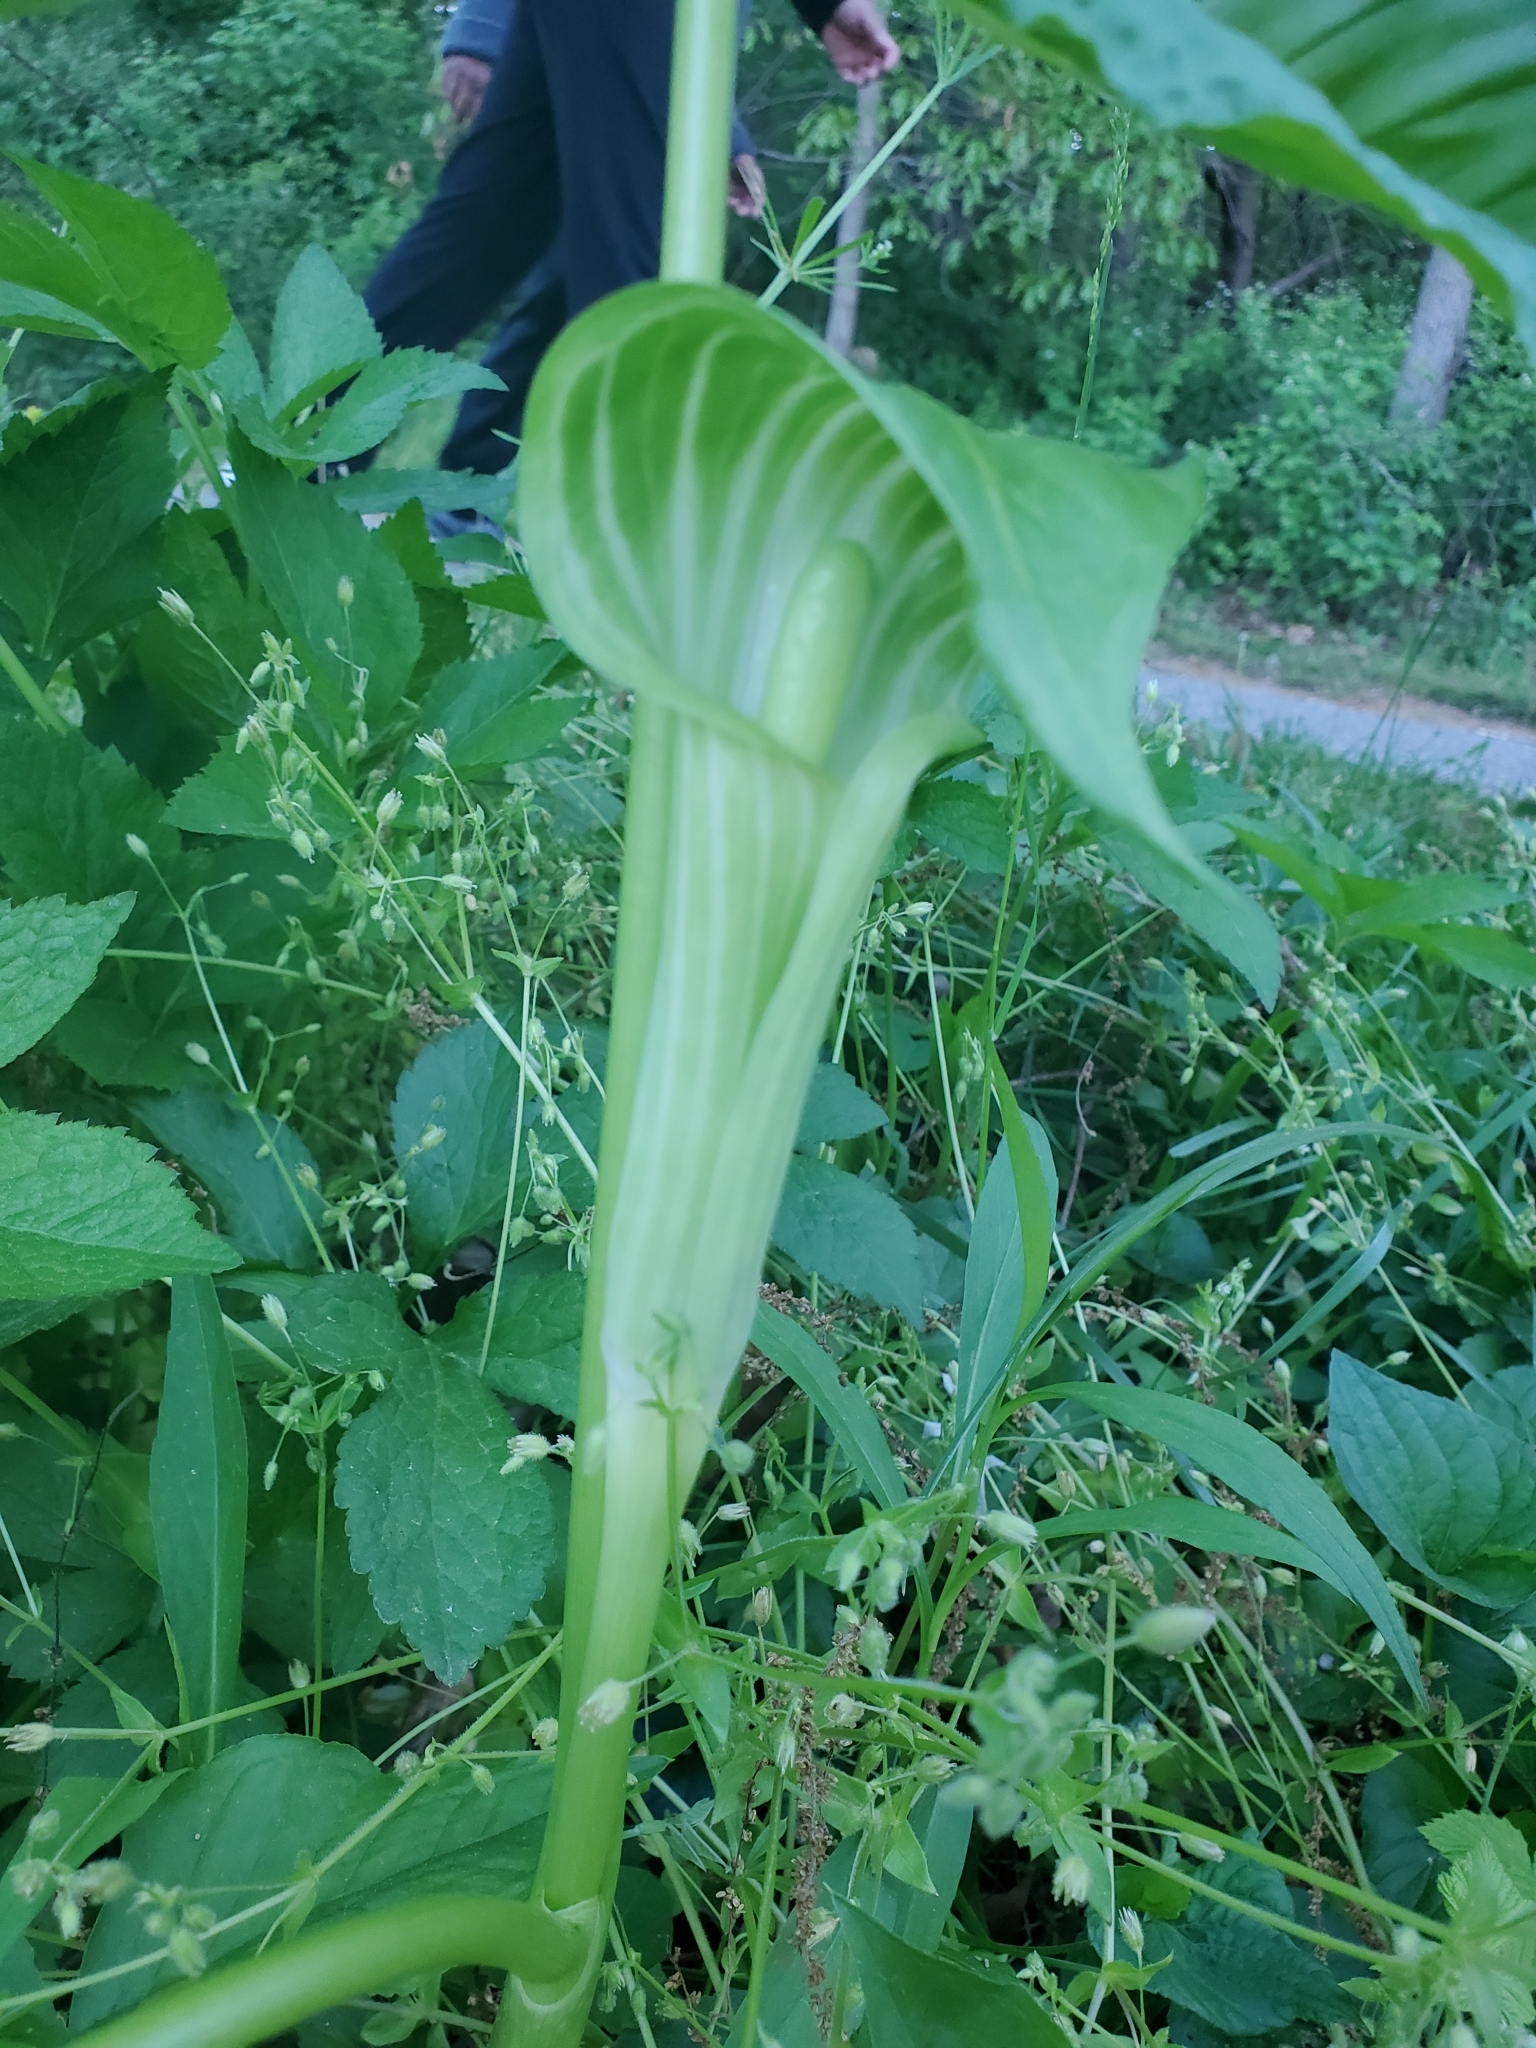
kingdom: Plantae
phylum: Tracheophyta
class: Liliopsida
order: Alismatales
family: Araceae
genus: Arisaema
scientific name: Arisaema triphyllum
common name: Jack-in-the-pulpit
